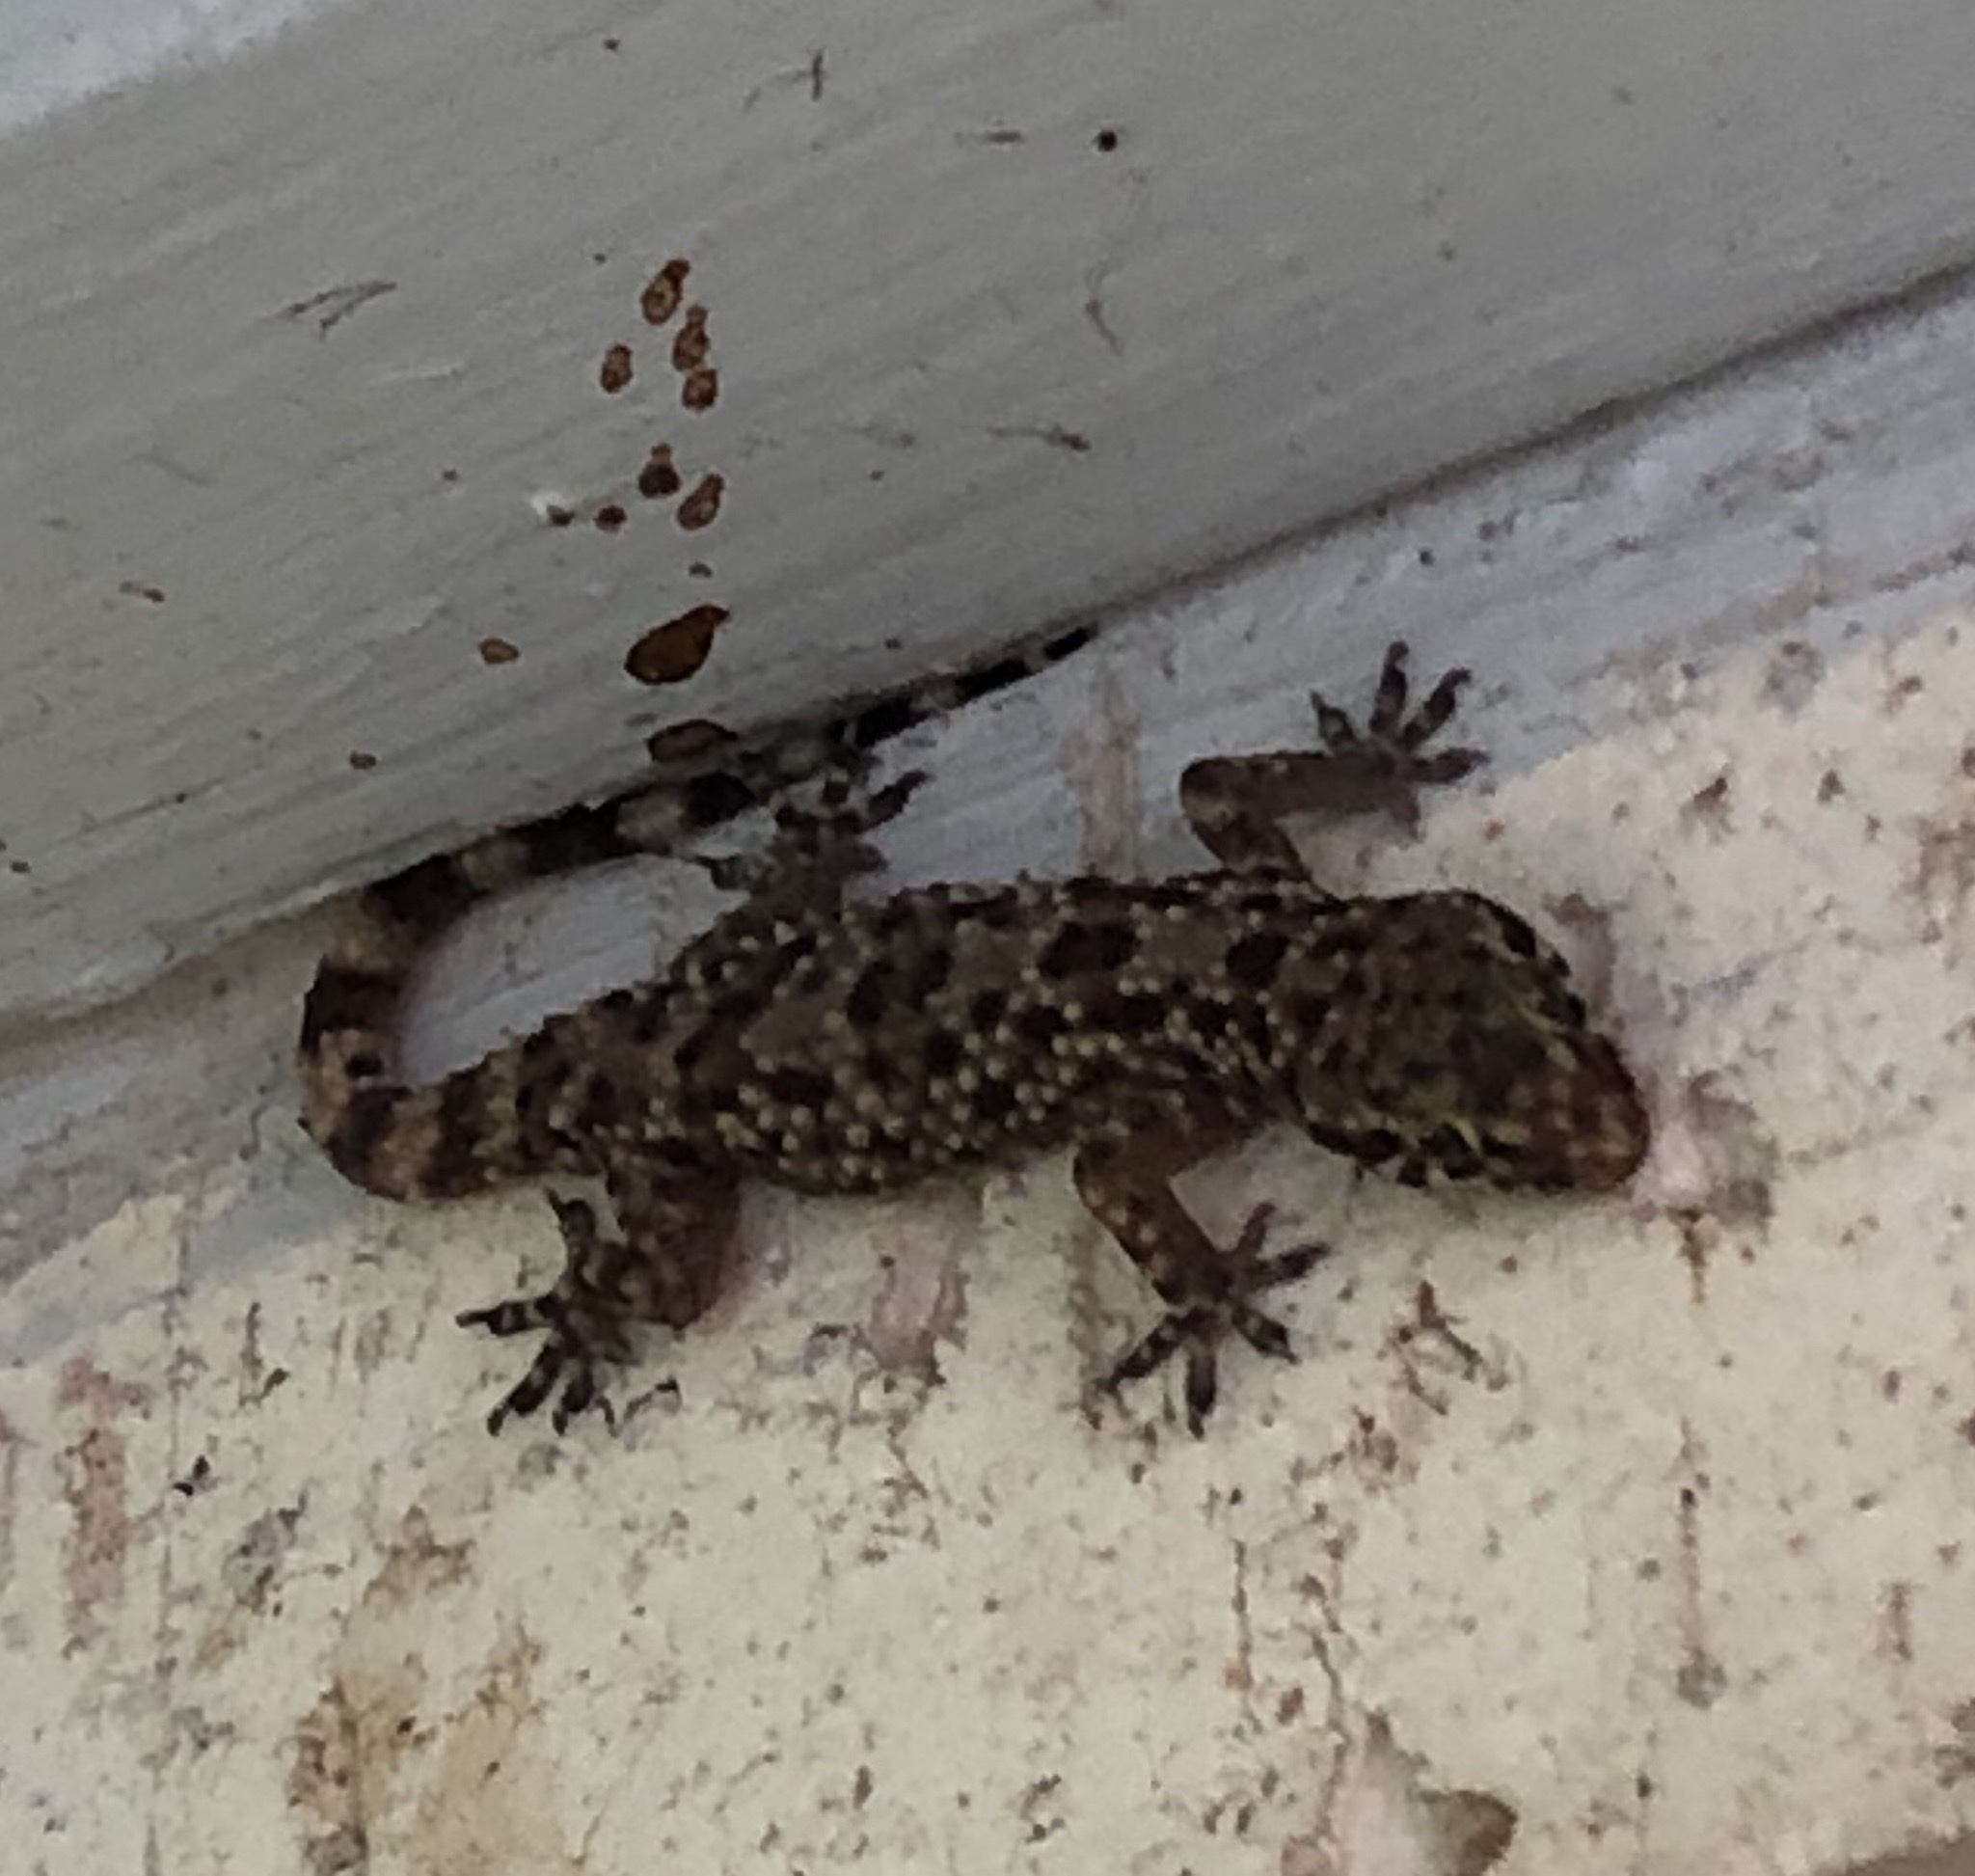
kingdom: Animalia
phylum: Chordata
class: Squamata
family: Gekkonidae
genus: Hemidactylus
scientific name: Hemidactylus turcicus
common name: Turkish gecko
